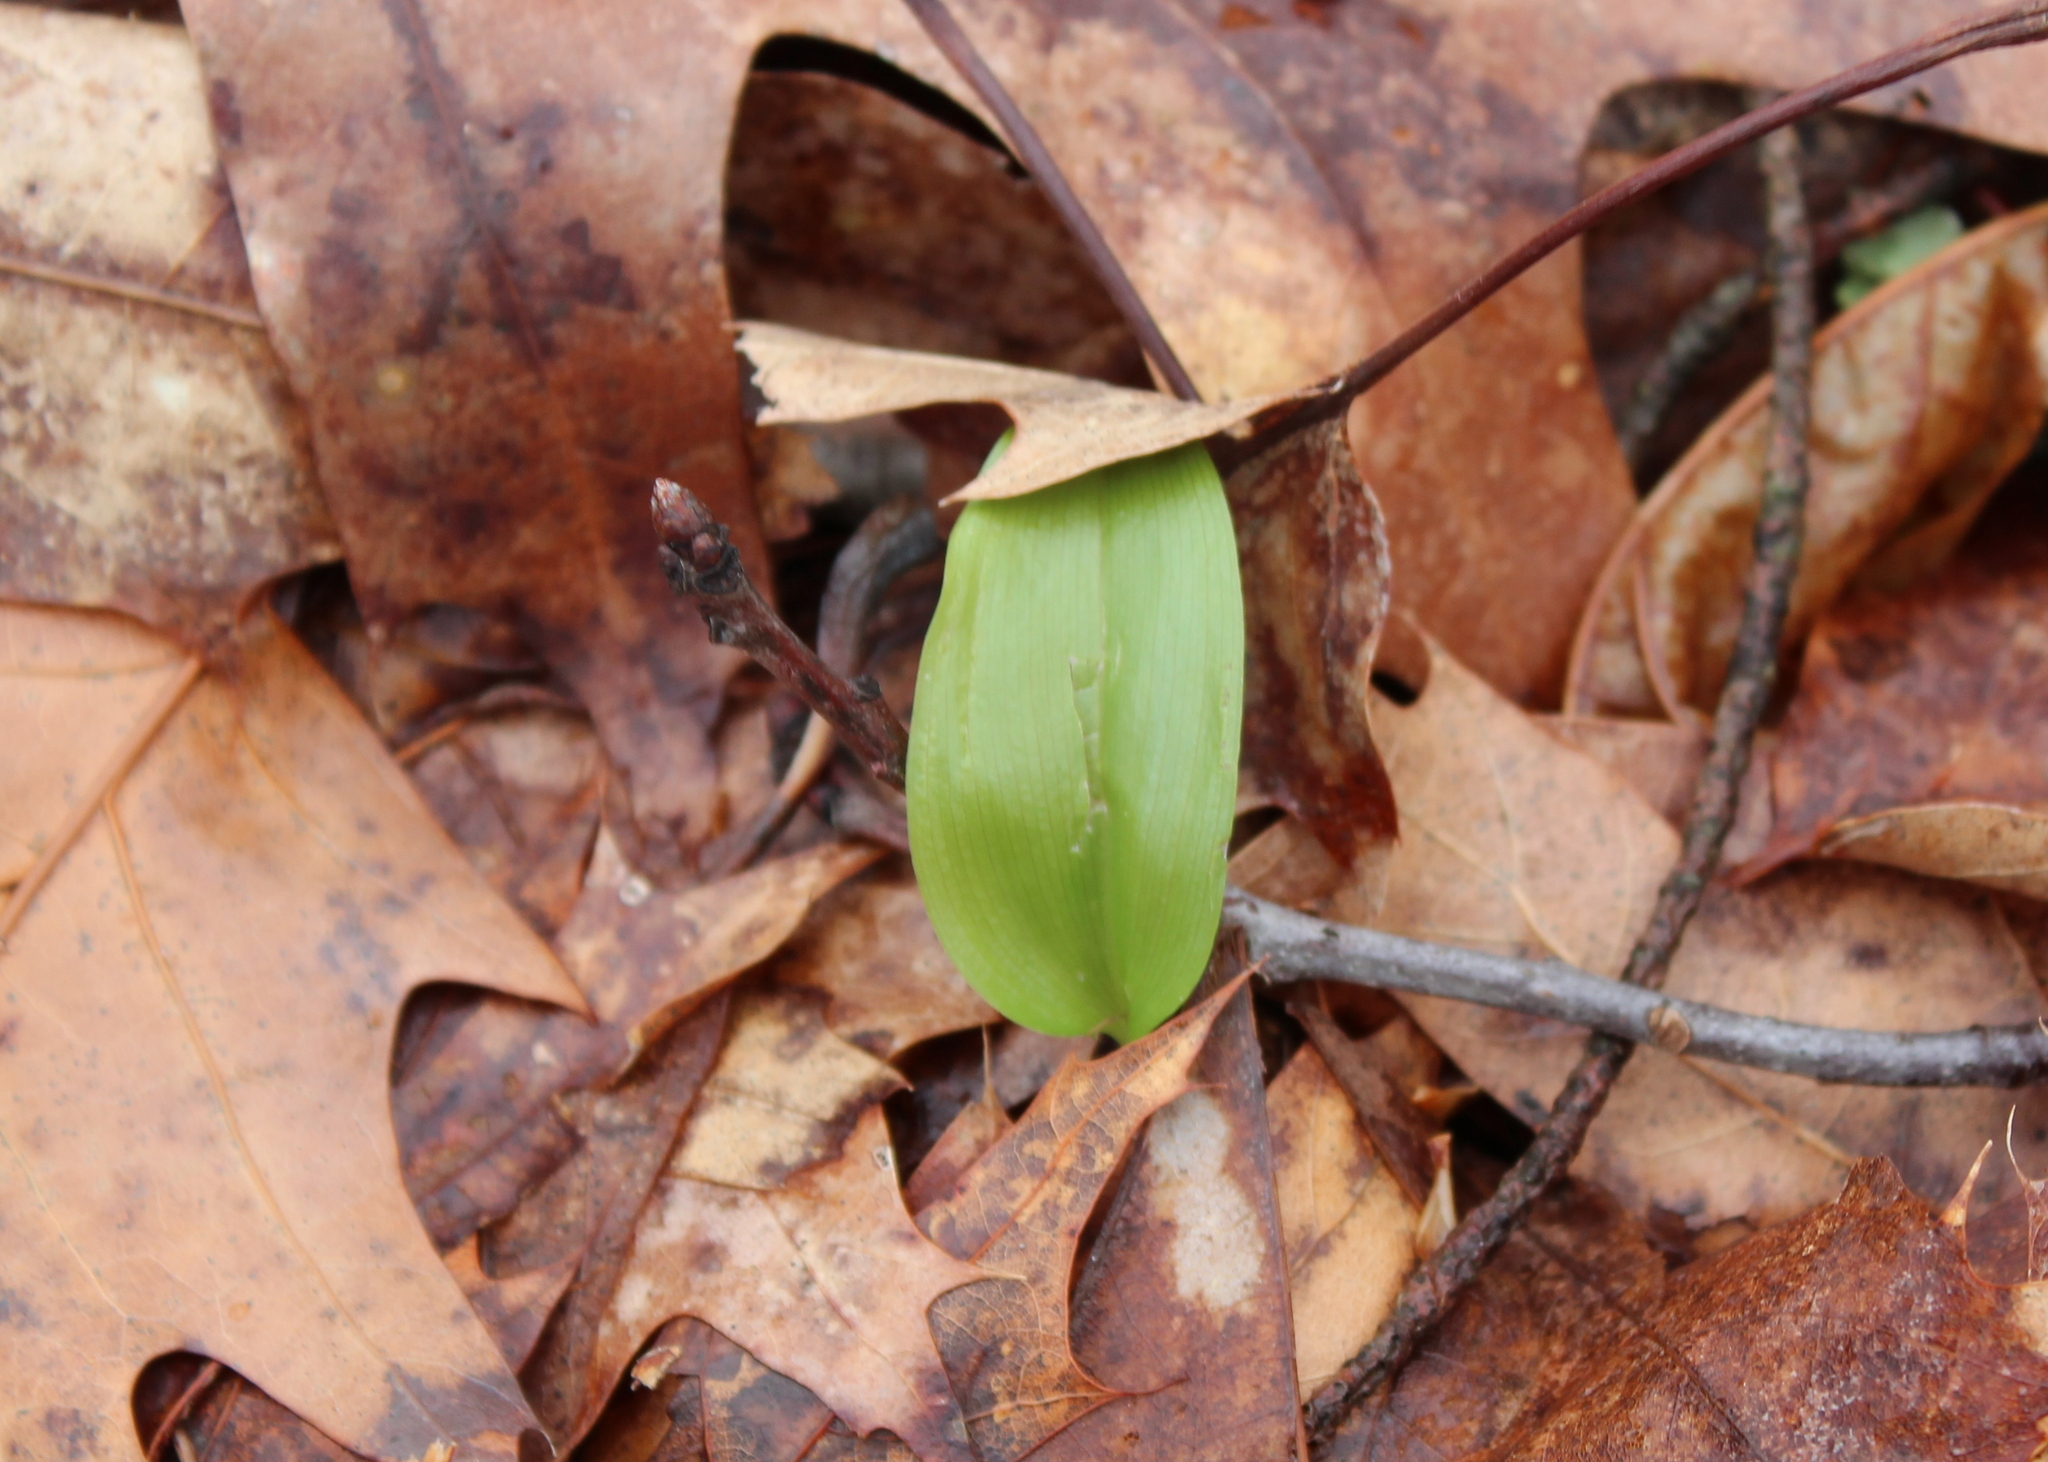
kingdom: Plantae
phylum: Tracheophyta
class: Liliopsida
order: Asparagales
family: Asparagaceae
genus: Maianthemum
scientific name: Maianthemum canadense
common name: False lily-of-the-valley
